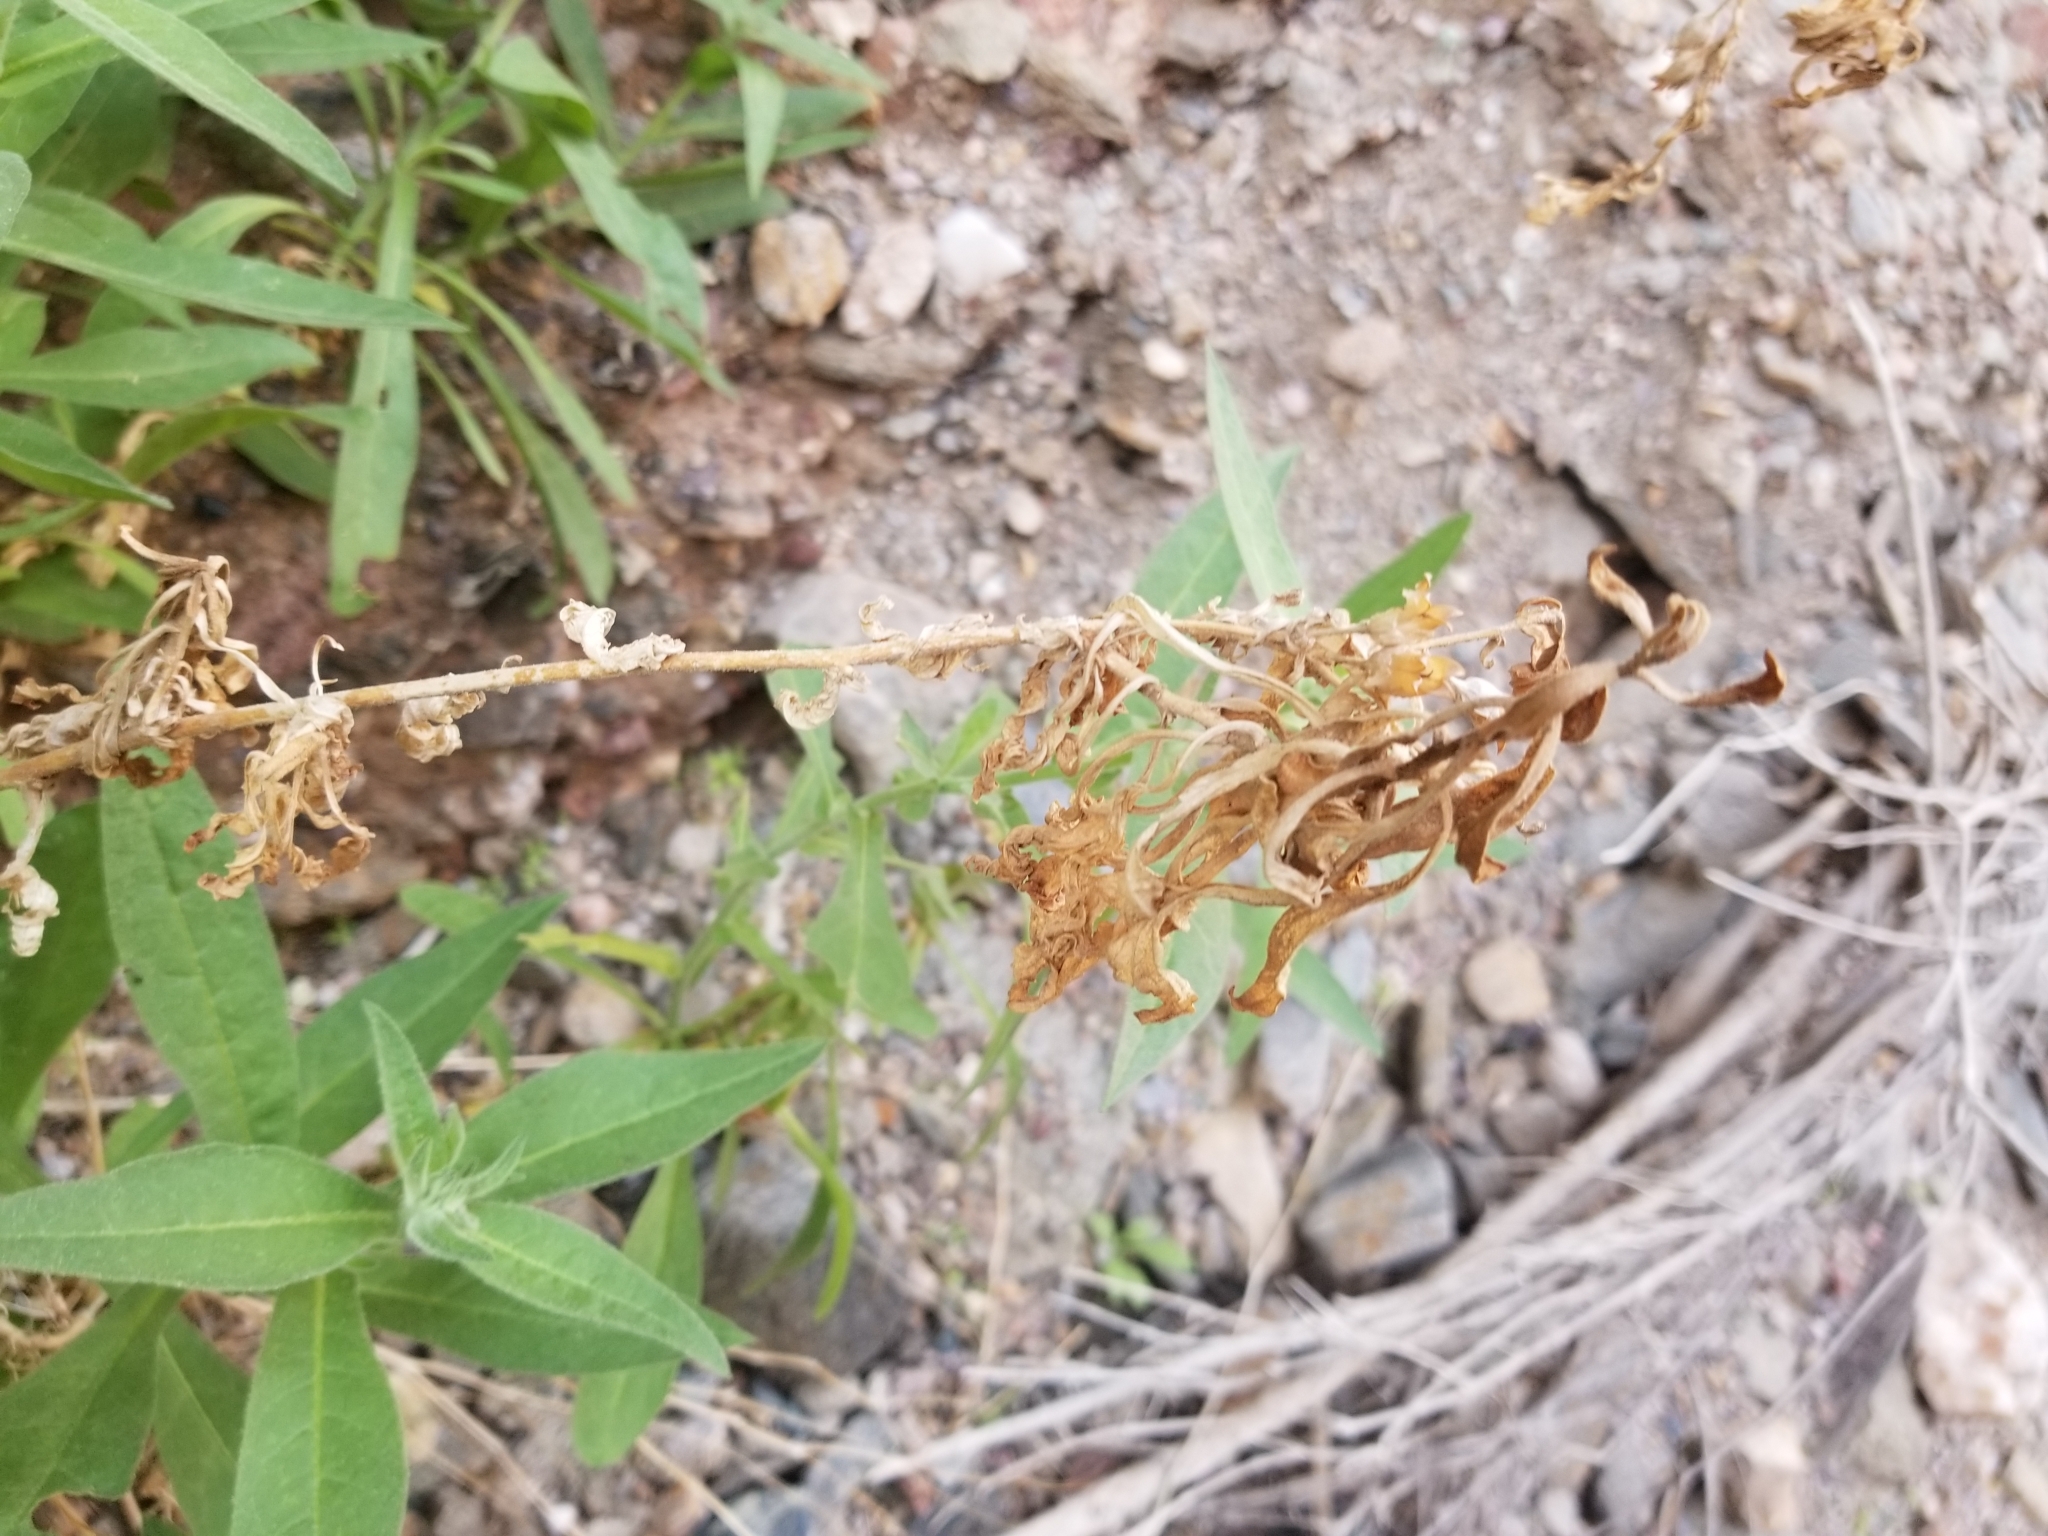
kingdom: Plantae
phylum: Tracheophyta
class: Magnoliopsida
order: Solanales
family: Solanaceae
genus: Nicotiana
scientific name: Nicotiana obtusifolia
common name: Desert tobacco
